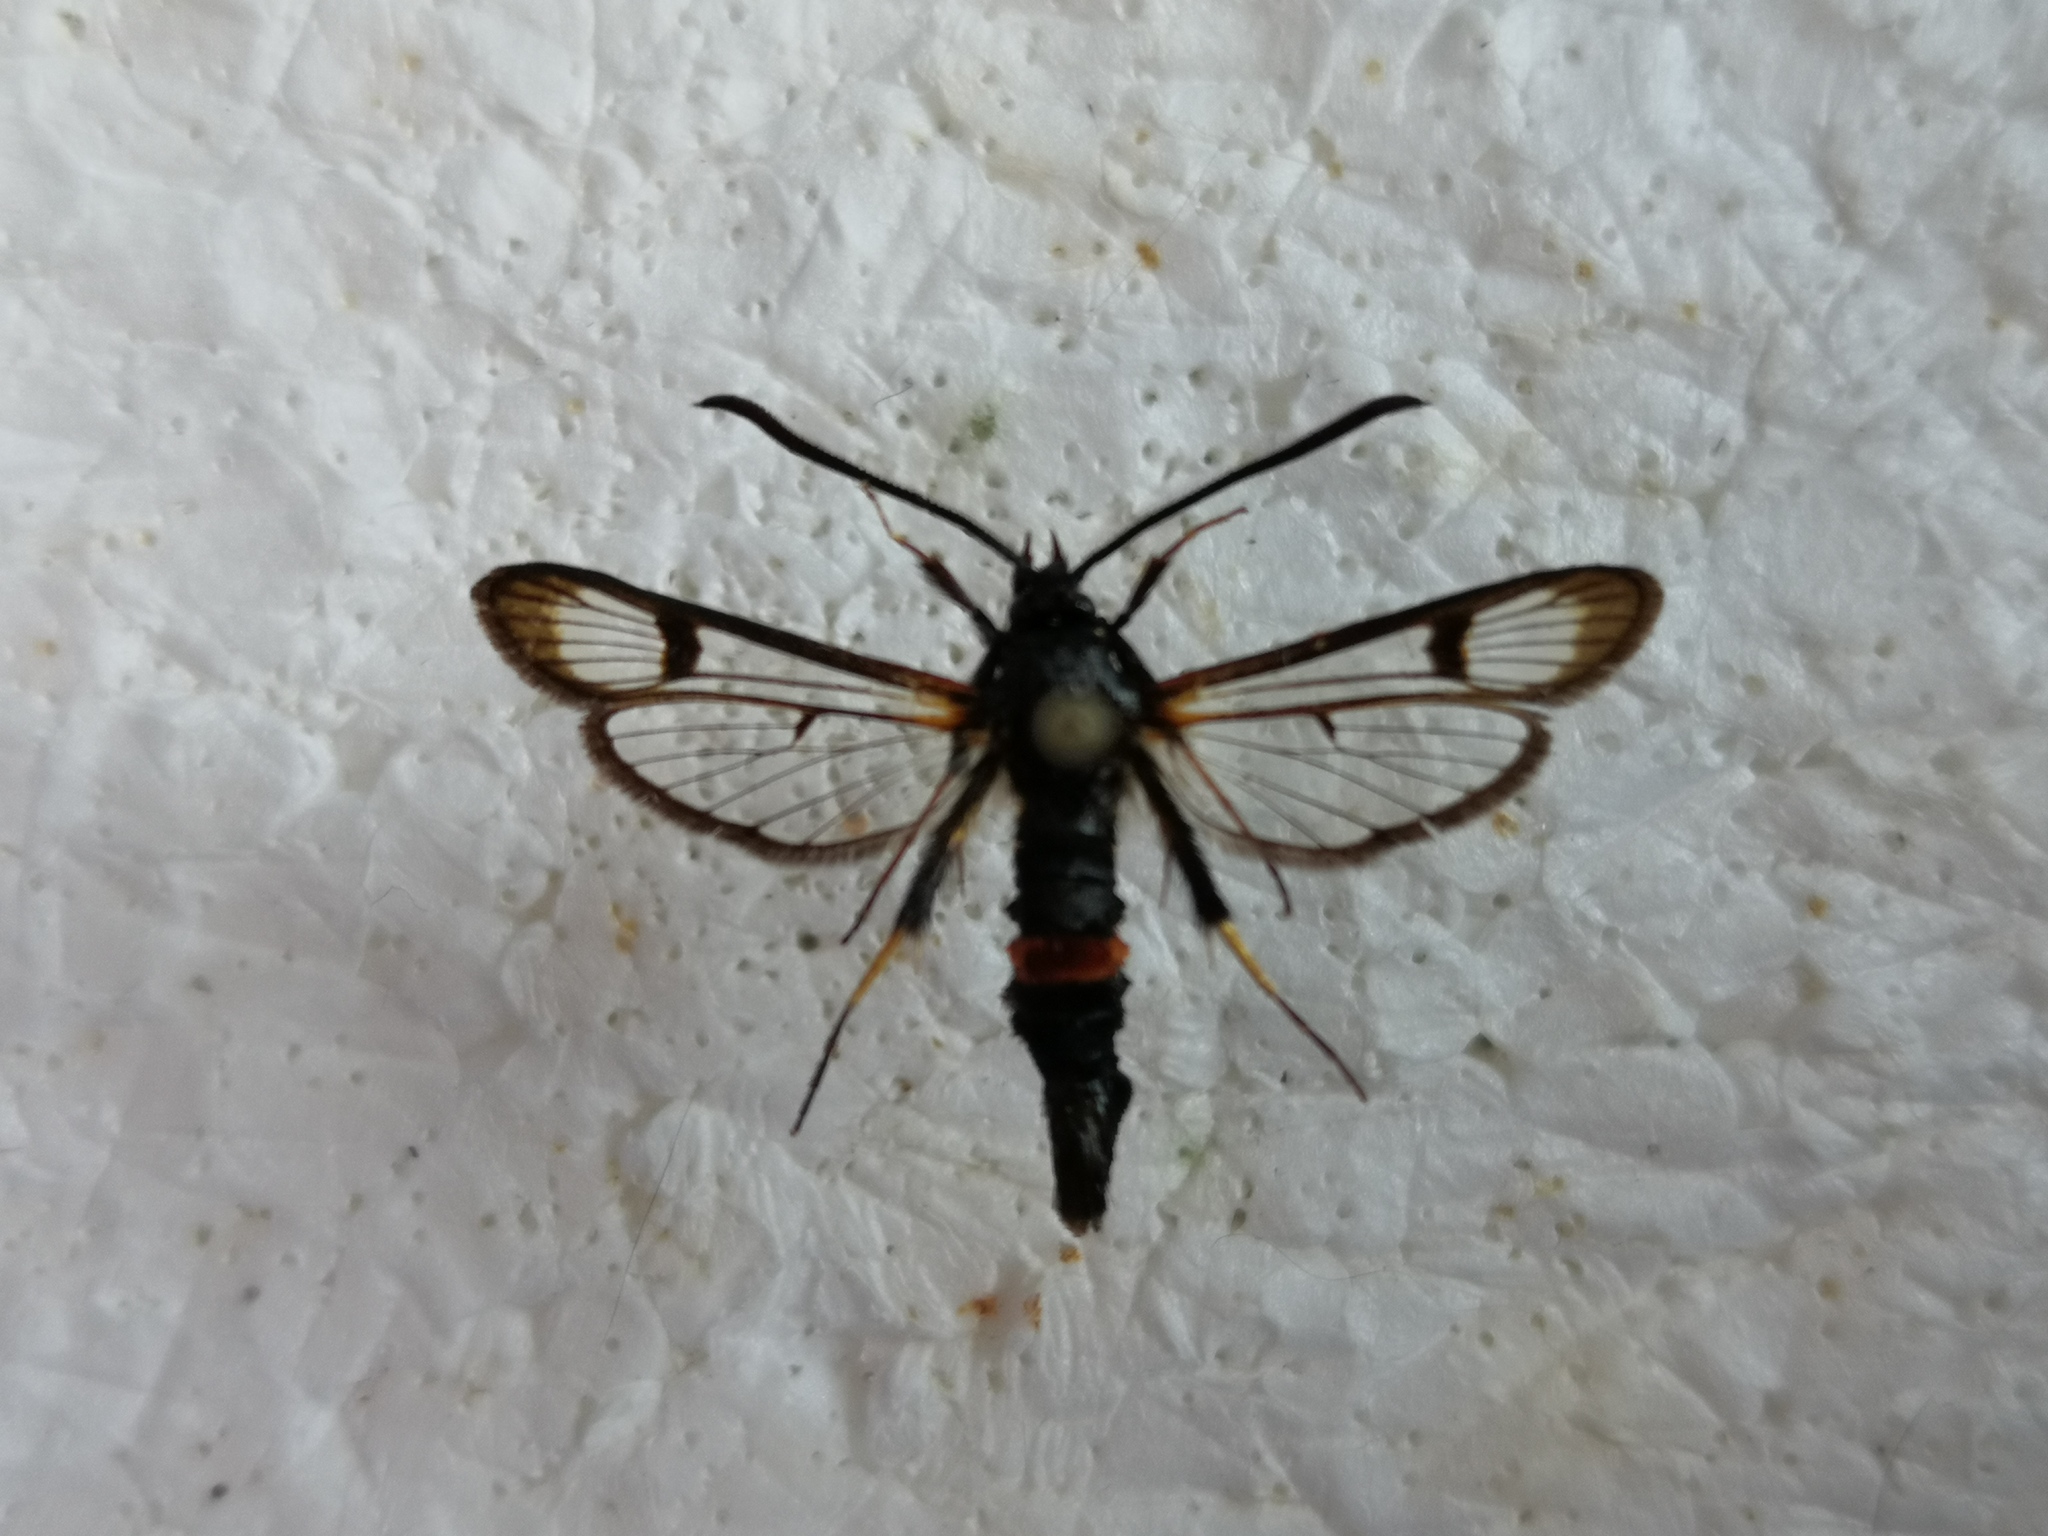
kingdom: Animalia
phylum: Arthropoda
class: Insecta
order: Lepidoptera
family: Sesiidae
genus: Synanthedon
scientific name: Synanthedon culiciformis
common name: Large red-belted clearwing
